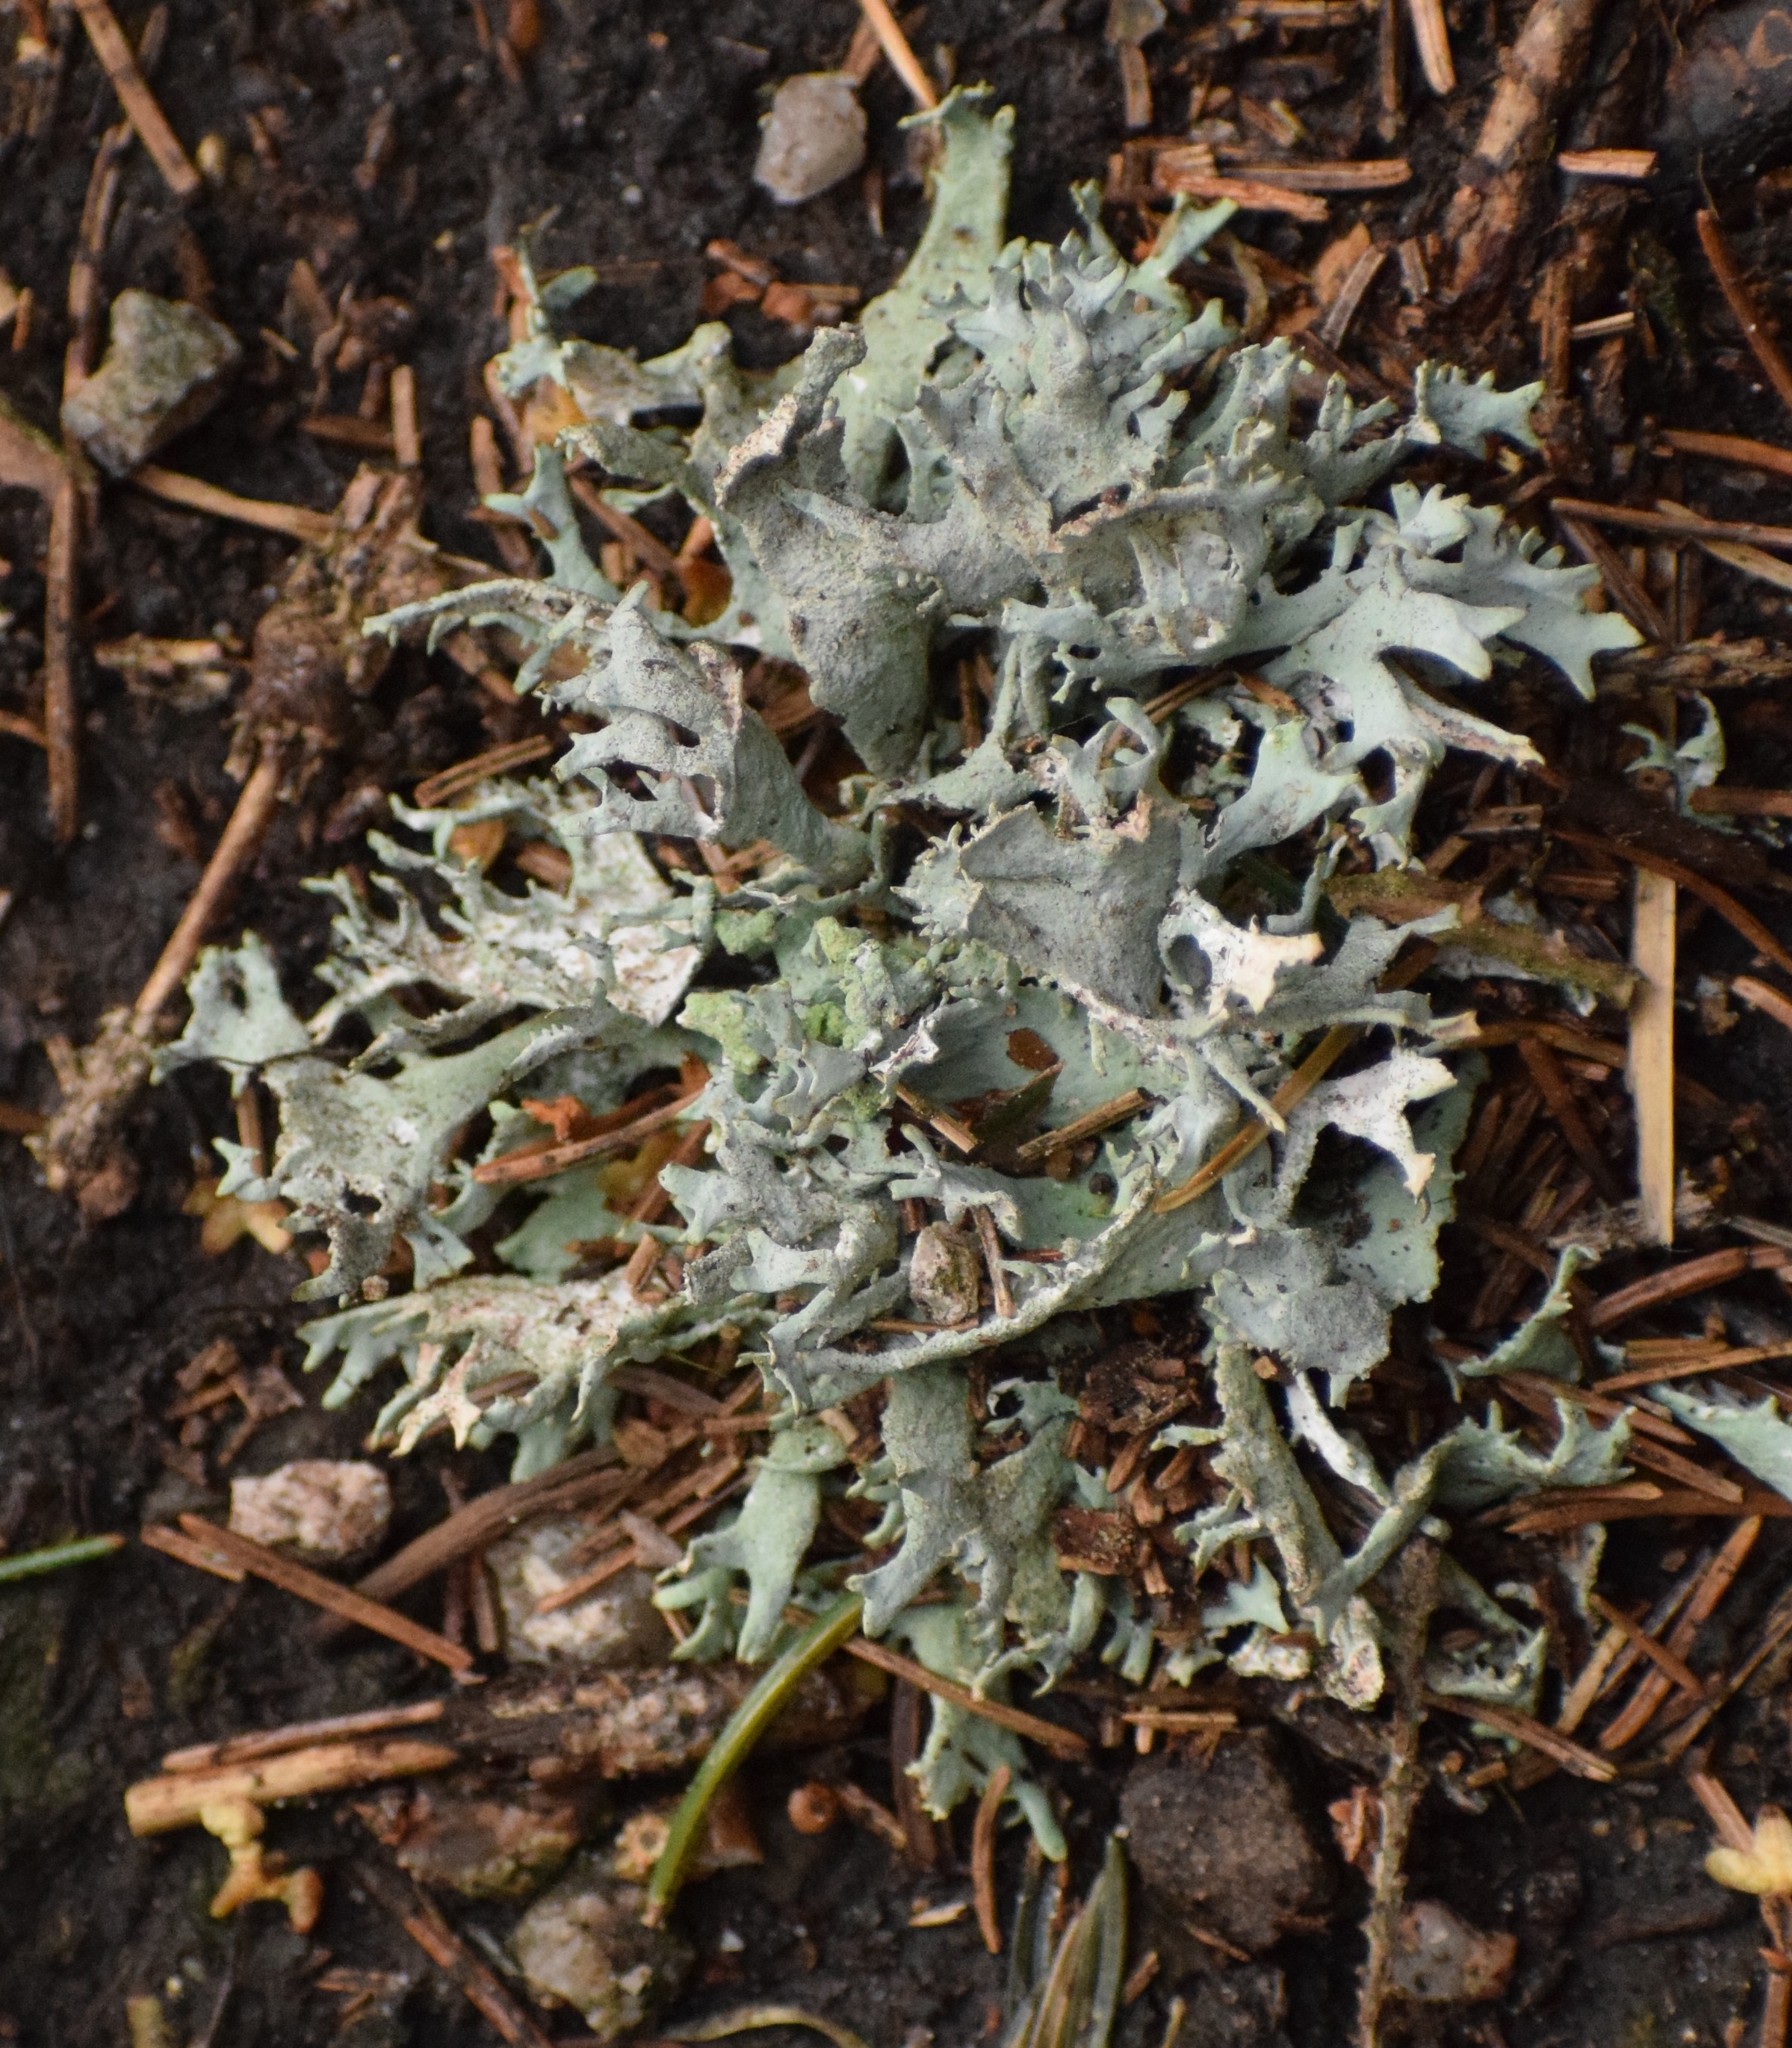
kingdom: Fungi
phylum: Ascomycota
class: Lecanoromycetes
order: Lecanorales
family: Parmeliaceae
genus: Pseudevernia
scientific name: Pseudevernia furfuracea
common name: Tree moss
